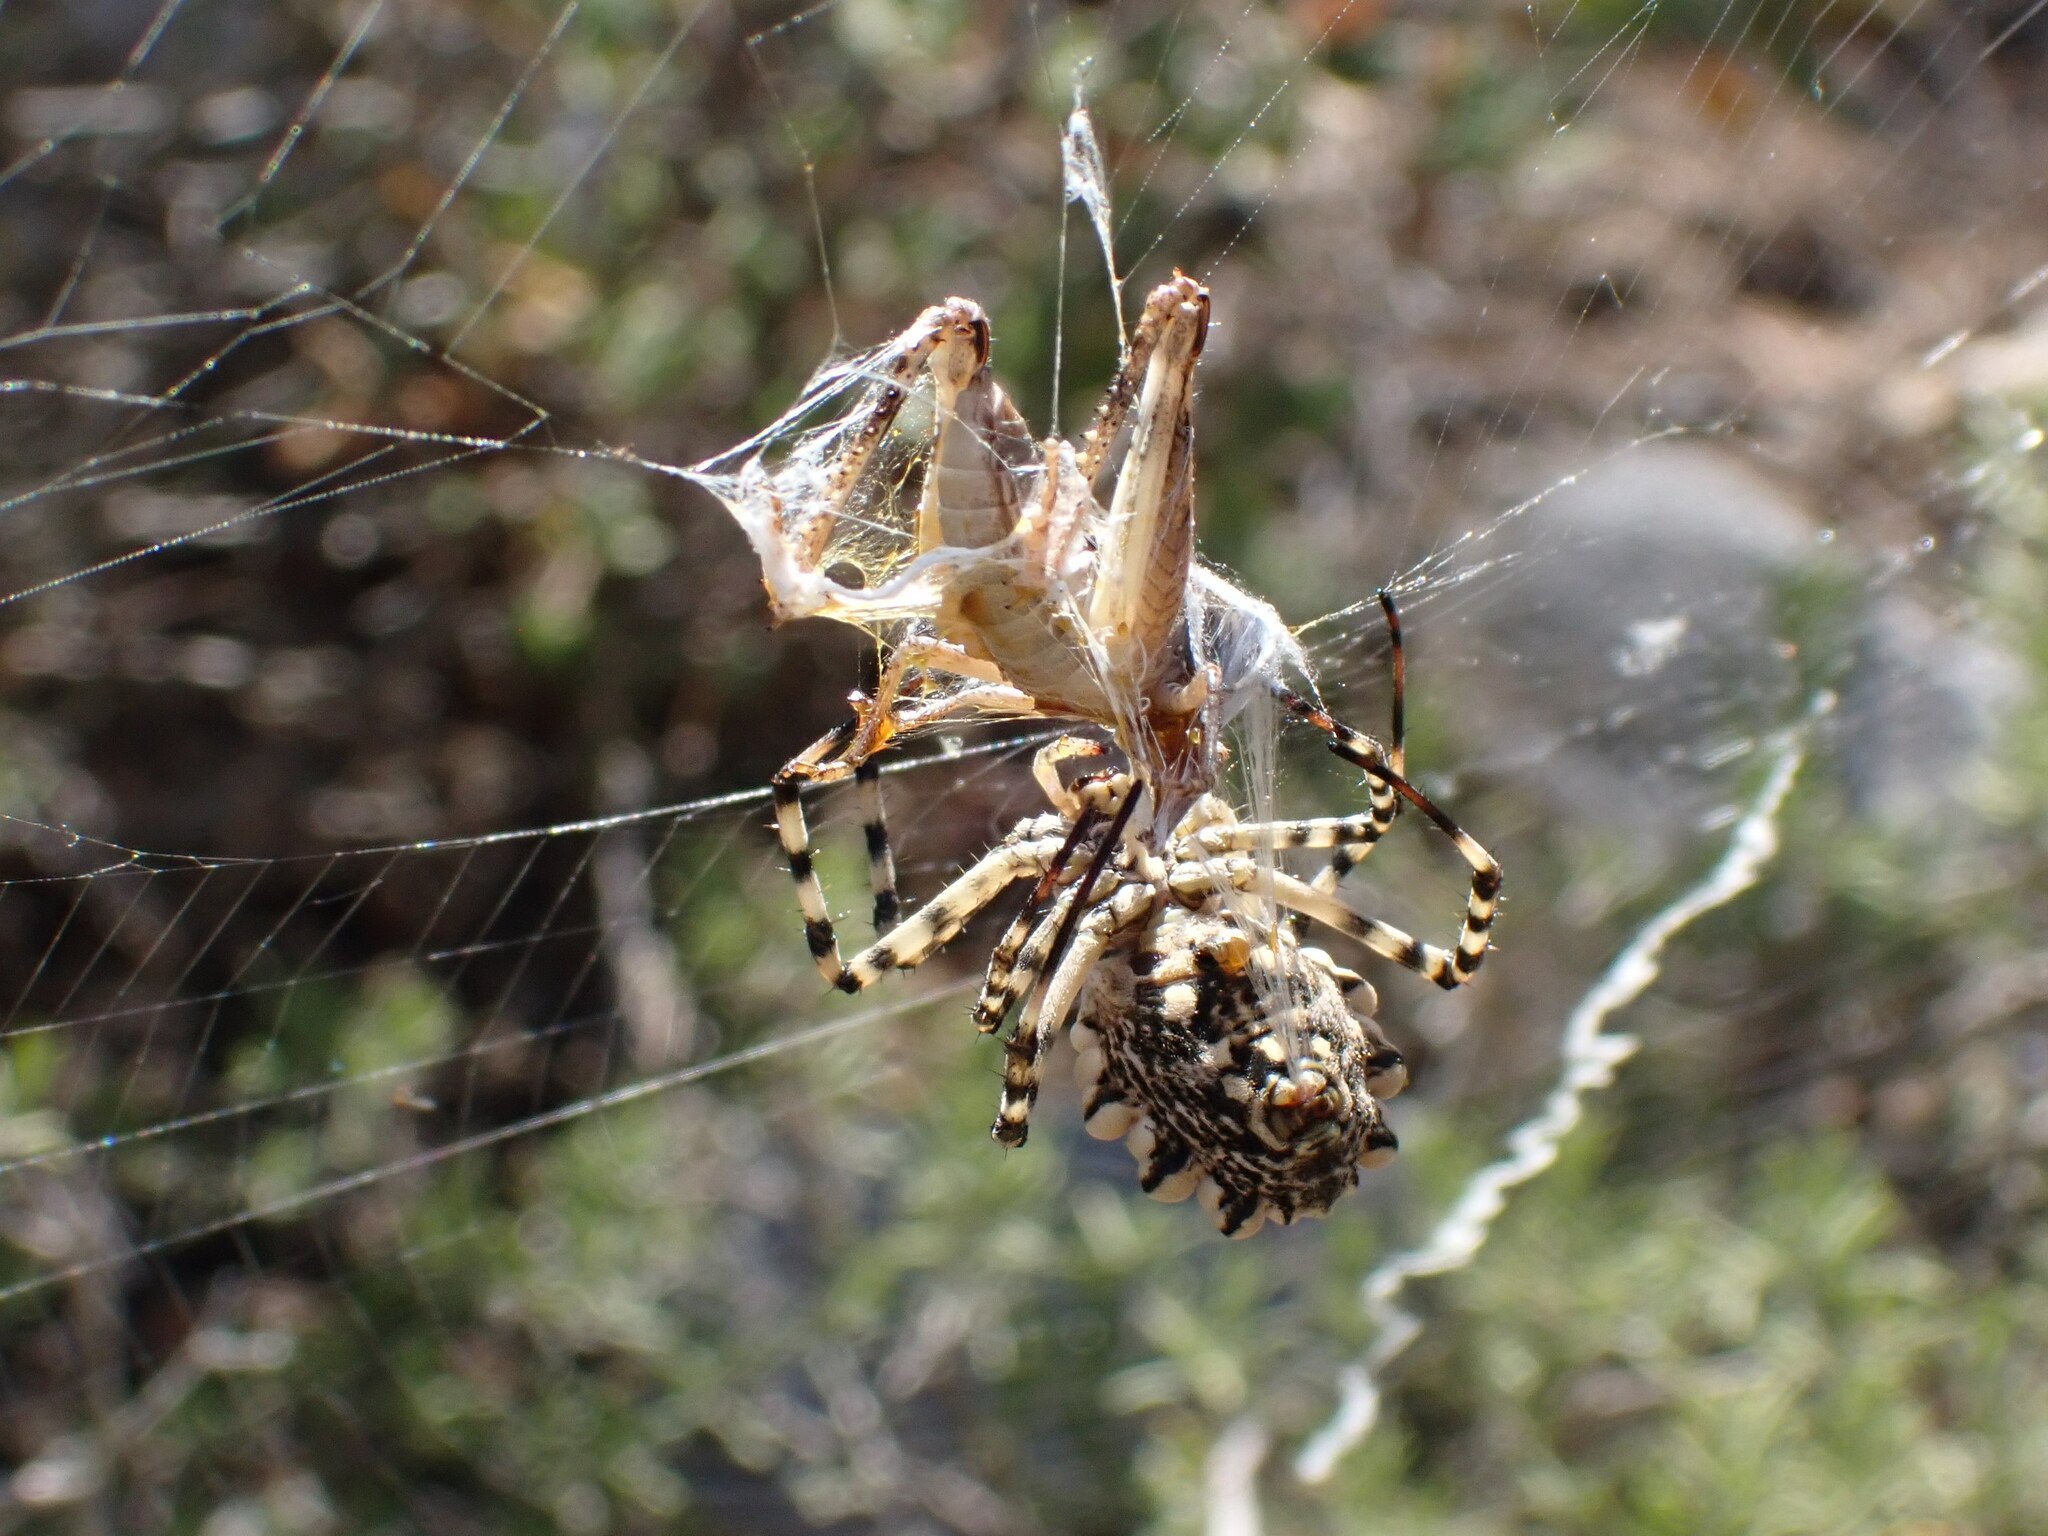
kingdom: Animalia
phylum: Arthropoda
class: Arachnida
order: Araneae
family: Araneidae
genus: Argiope
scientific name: Argiope lobata
